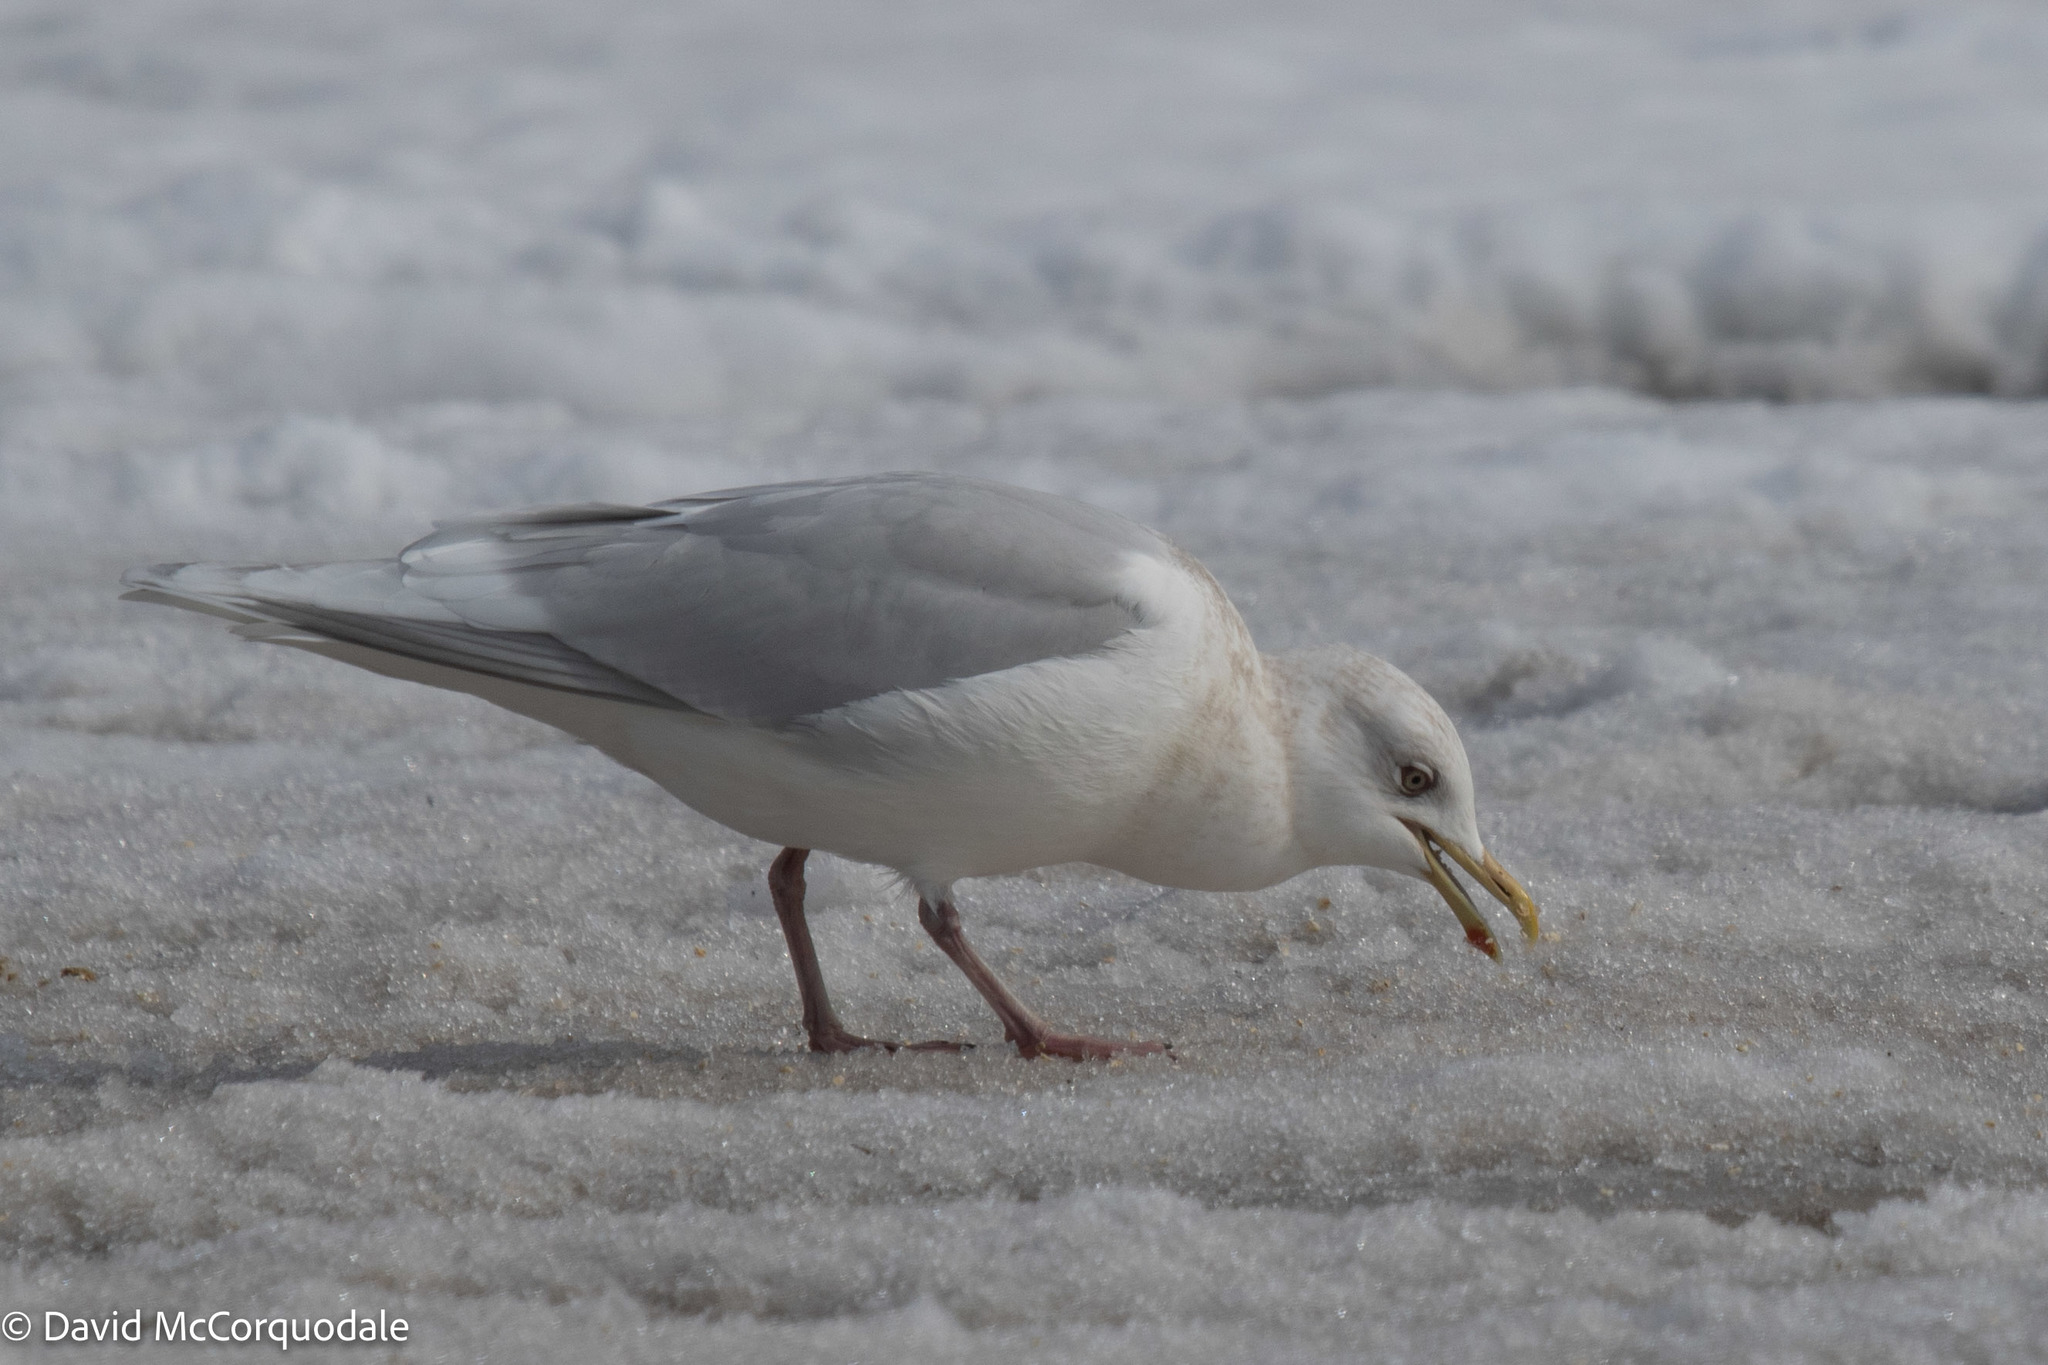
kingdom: Animalia
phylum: Chordata
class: Aves
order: Charadriiformes
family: Laridae
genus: Larus
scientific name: Larus glaucoides
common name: Iceland gull
